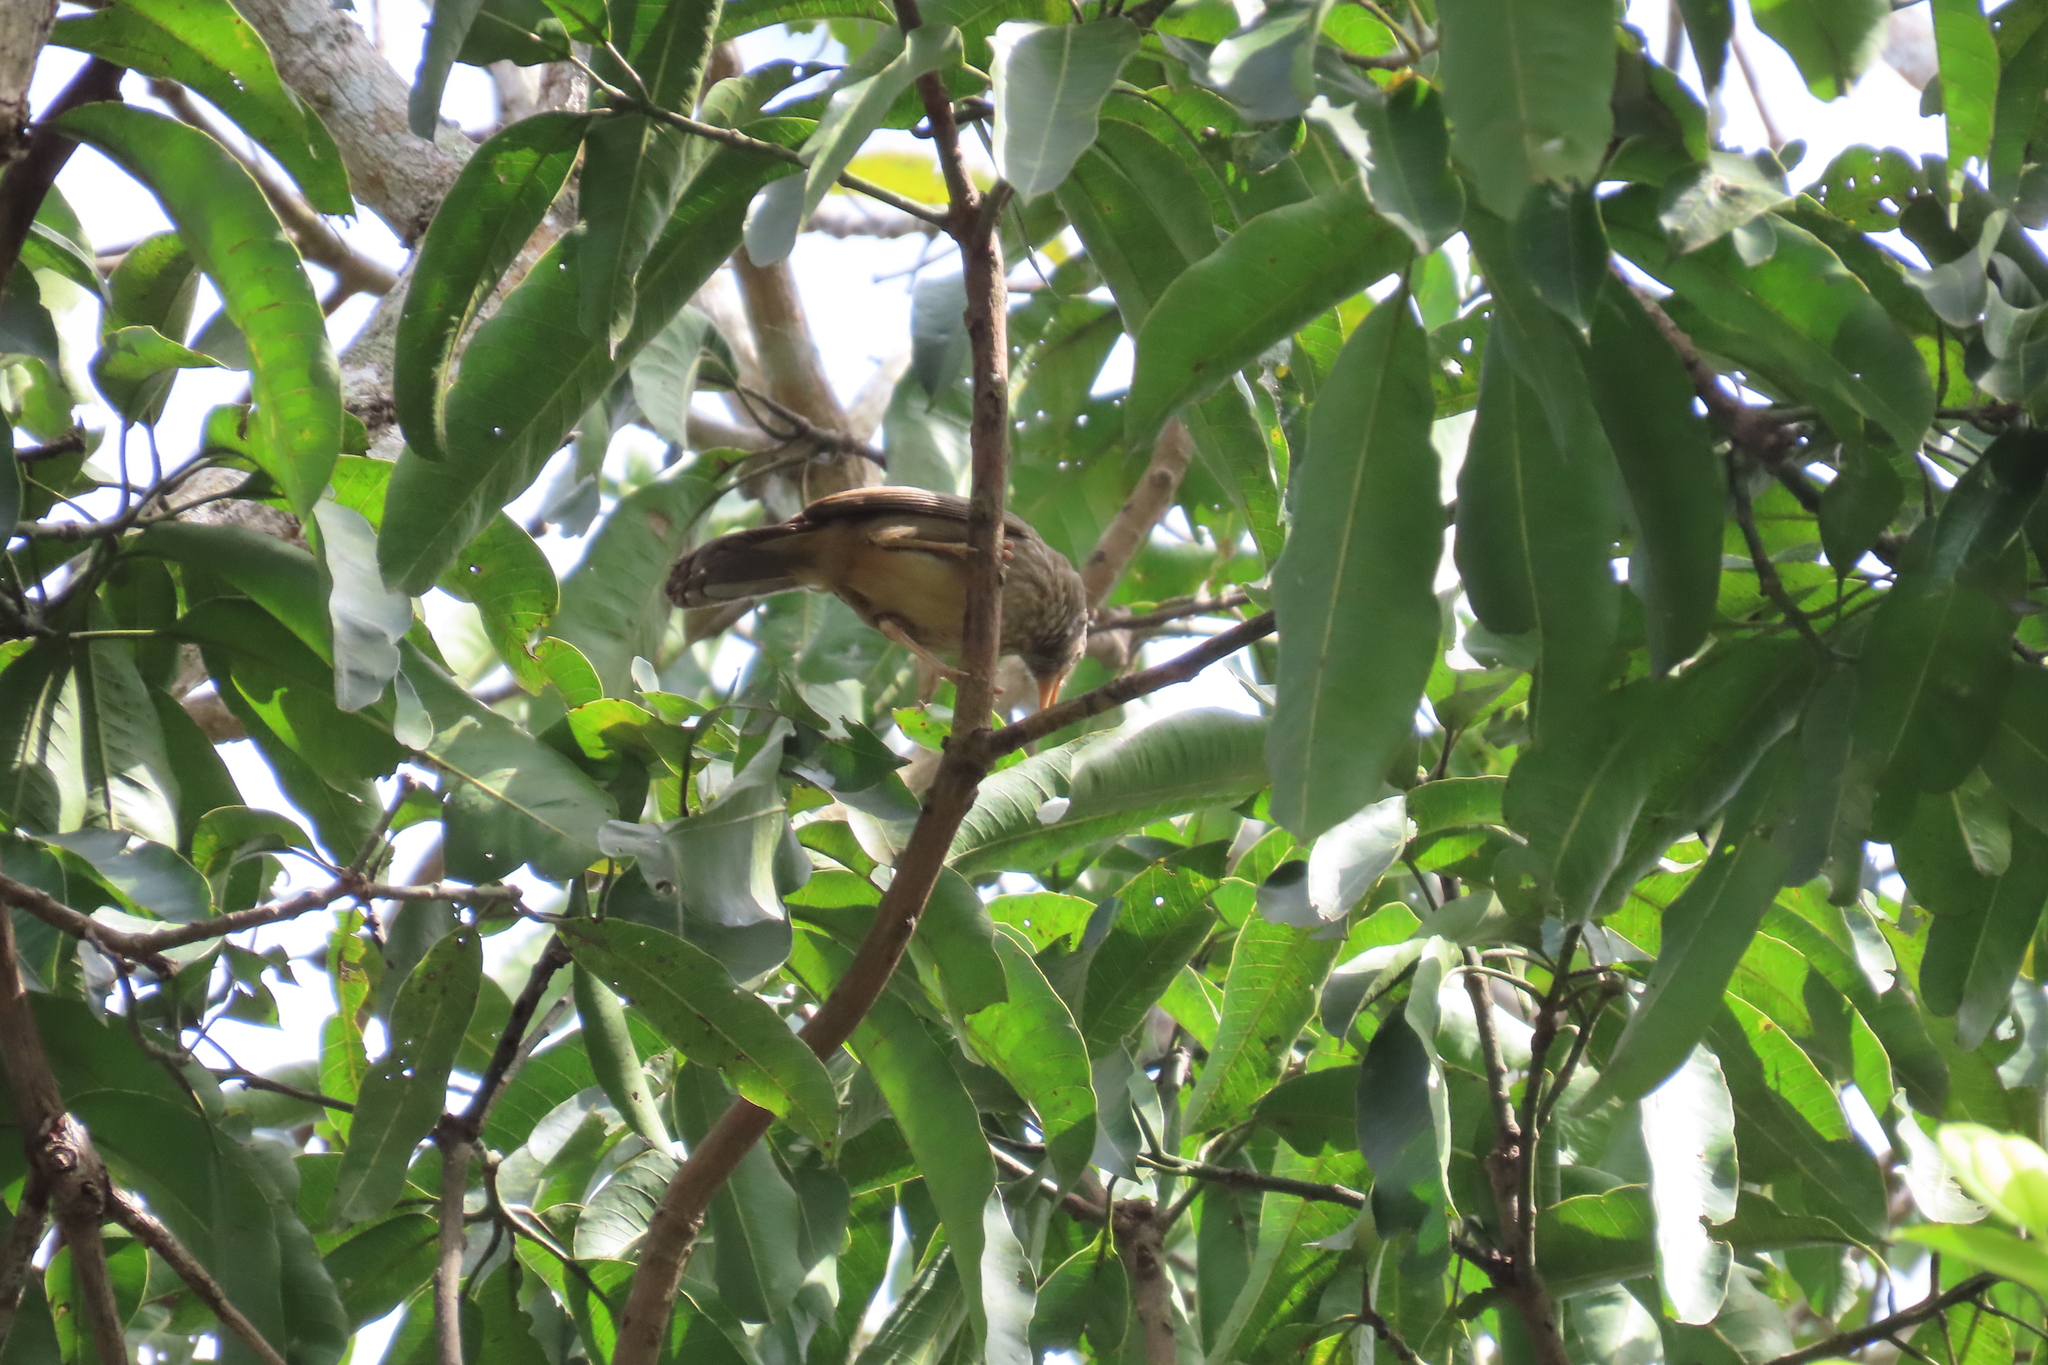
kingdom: Animalia
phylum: Chordata
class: Aves
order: Passeriformes
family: Leiothrichidae
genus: Turdoides
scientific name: Turdoides striata
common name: Jungle babbler
